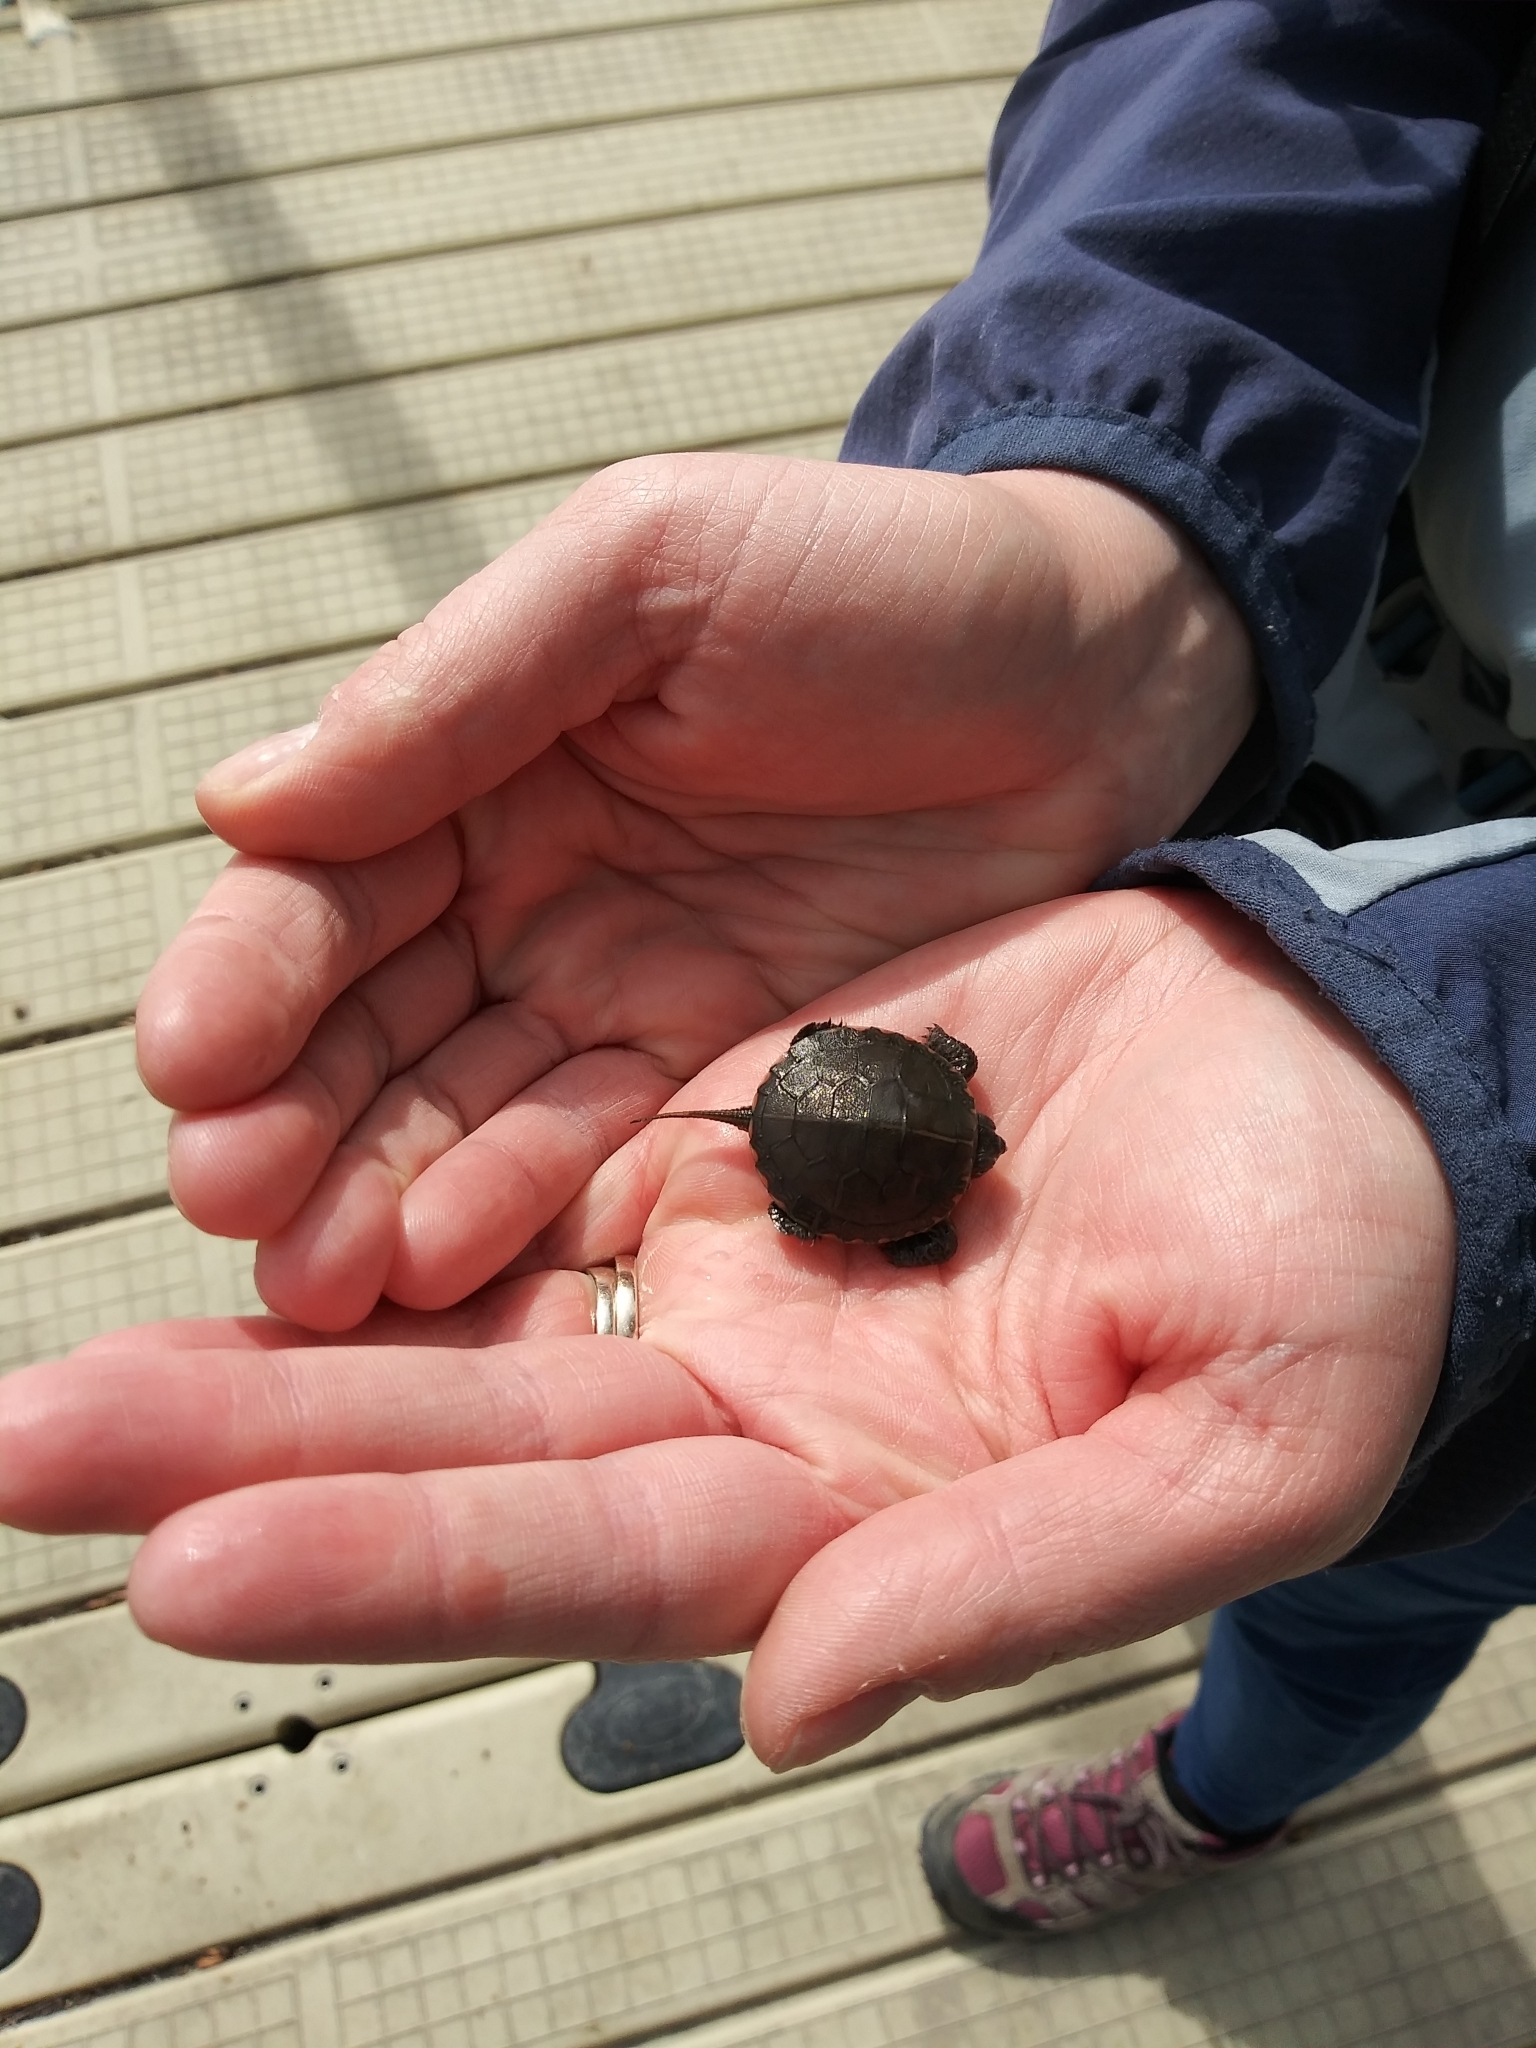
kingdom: Animalia
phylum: Chordata
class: Testudines
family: Emydidae
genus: Chrysemys
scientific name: Chrysemys picta
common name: Painted turtle
